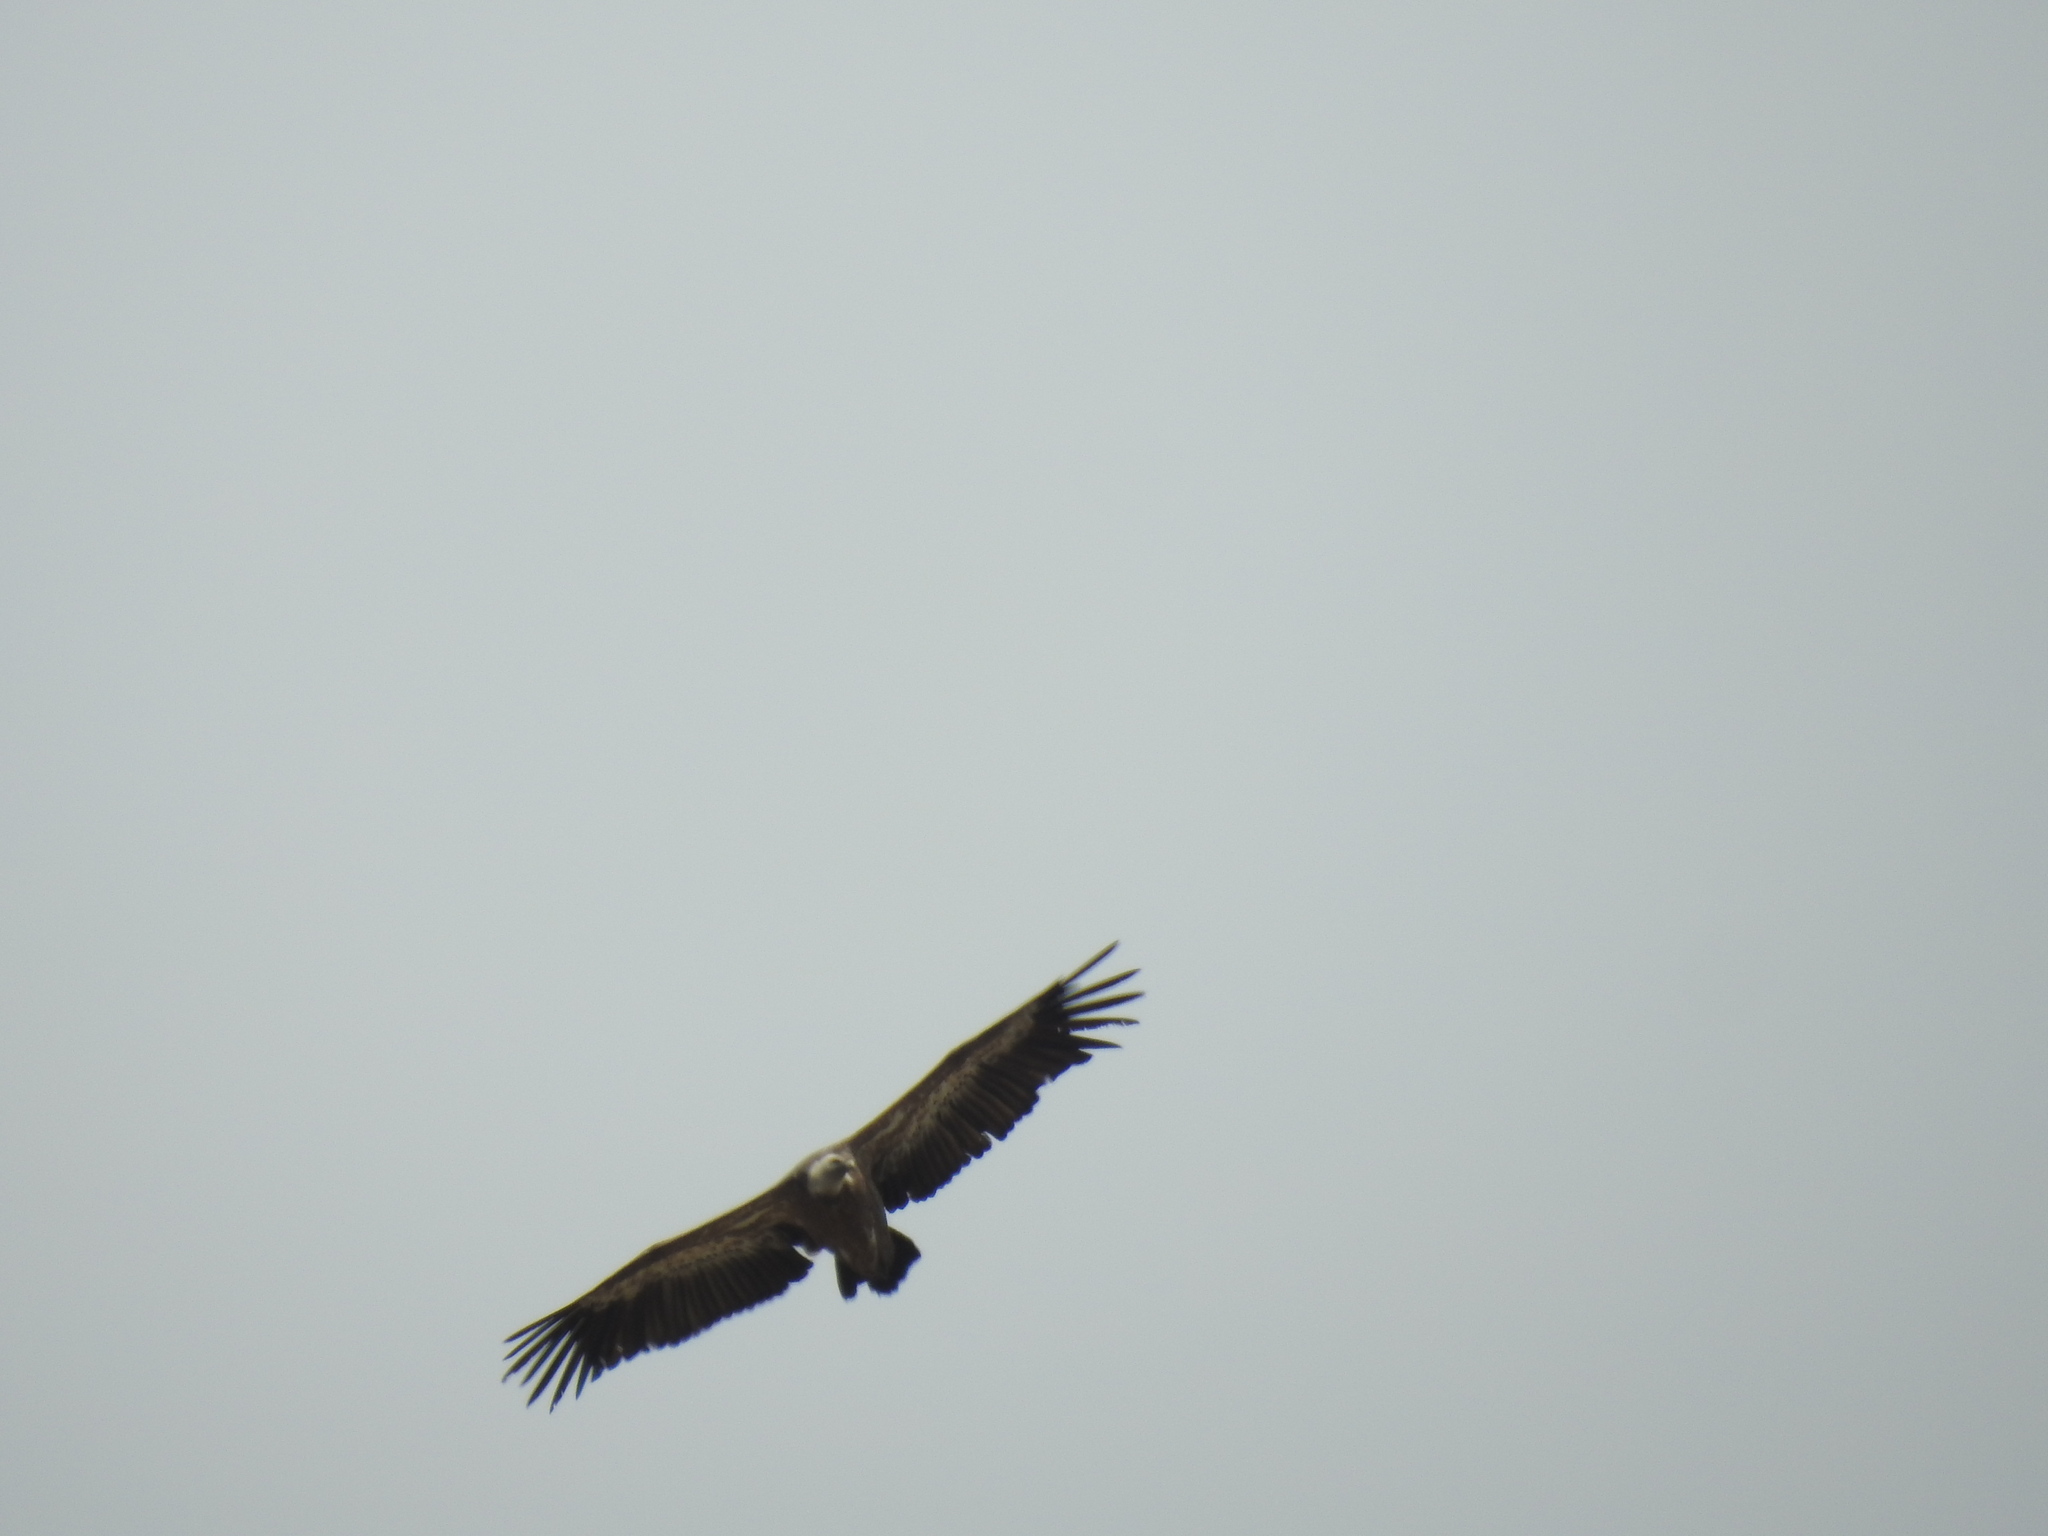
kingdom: Animalia
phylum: Chordata
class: Aves
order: Accipitriformes
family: Accipitridae
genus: Gyps
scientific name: Gyps fulvus
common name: Griffon vulture
